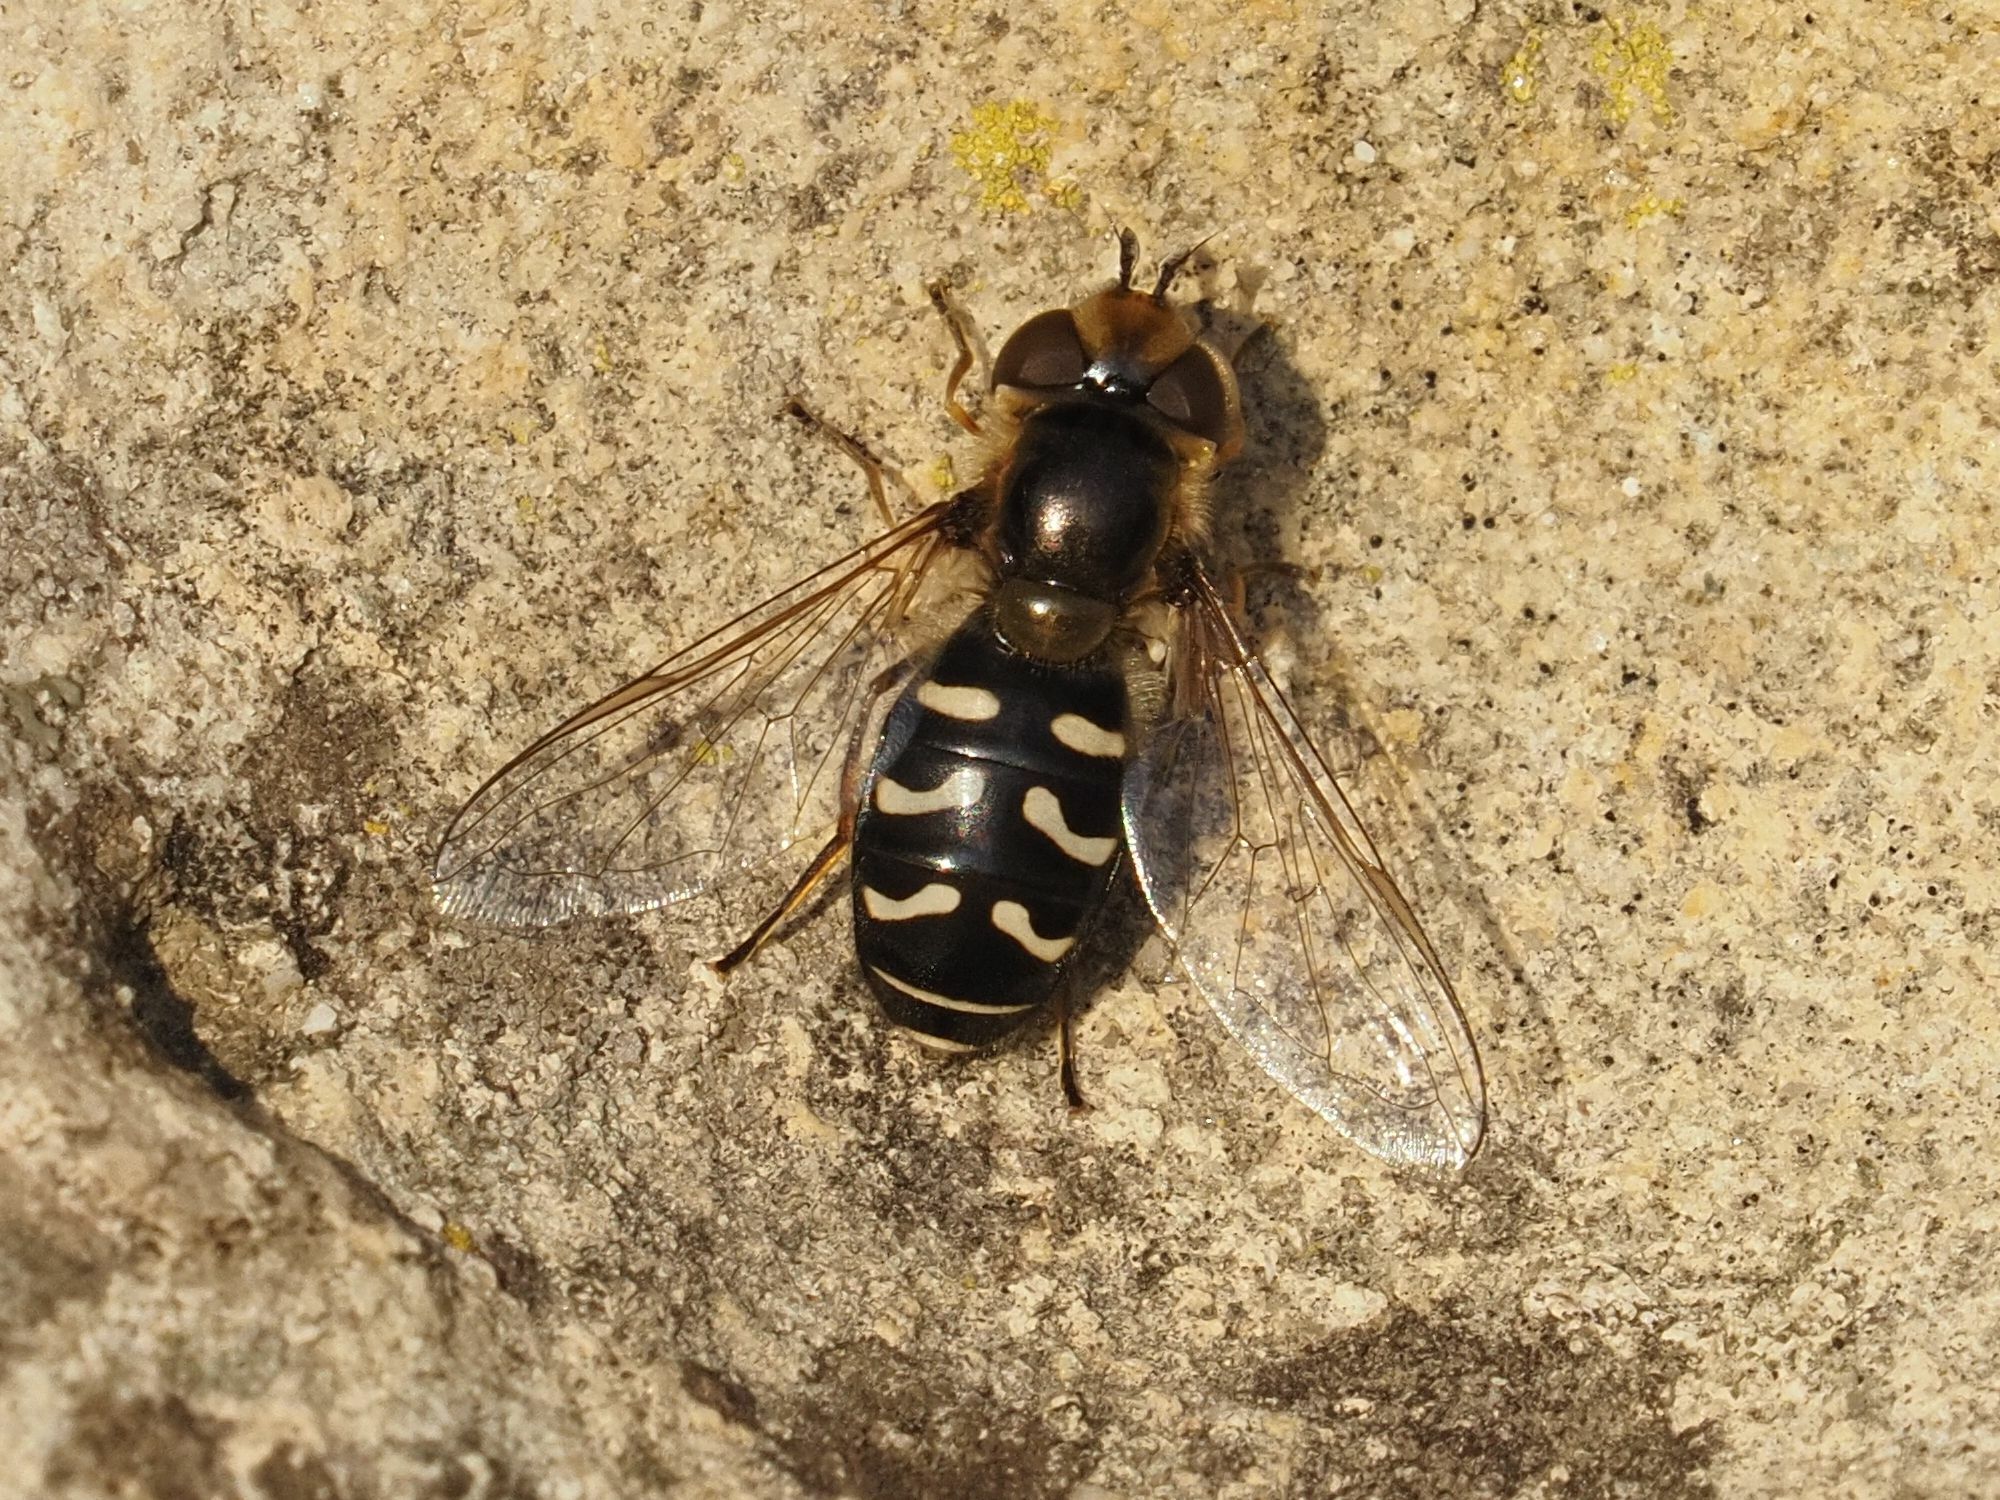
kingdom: Animalia
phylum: Arthropoda
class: Insecta
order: Diptera
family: Syrphidae
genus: Scaeva
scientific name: Scaeva pyrastri
